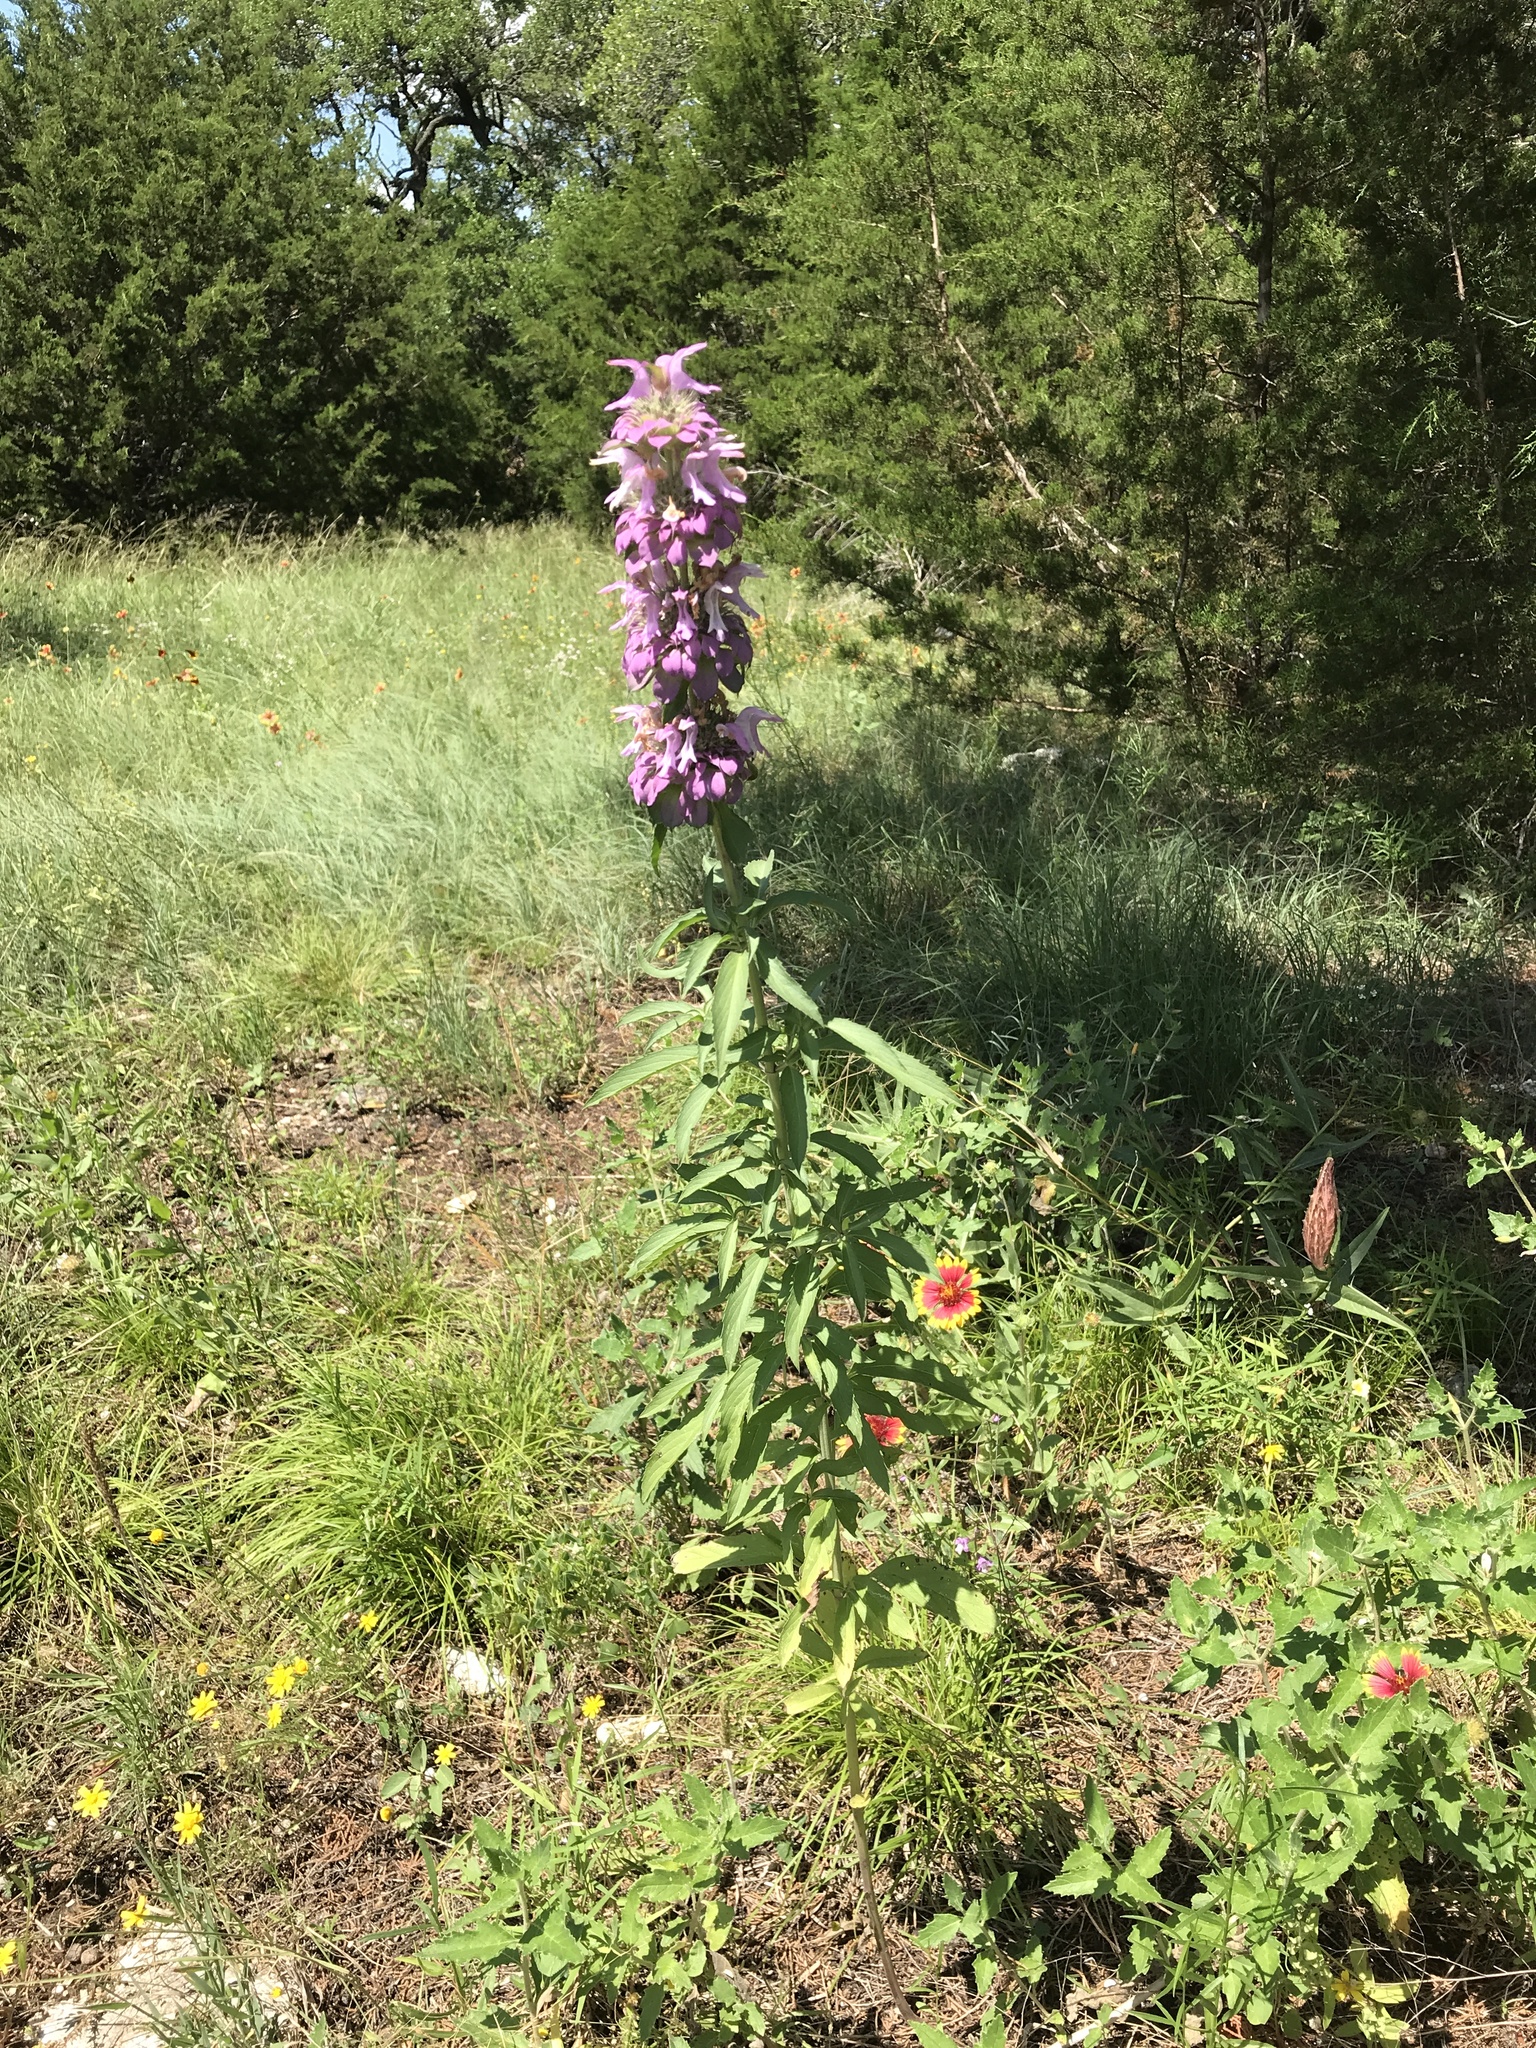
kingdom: Plantae
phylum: Tracheophyta
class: Magnoliopsida
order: Lamiales
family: Lamiaceae
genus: Monarda
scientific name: Monarda citriodora
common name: Lemon beebalm
